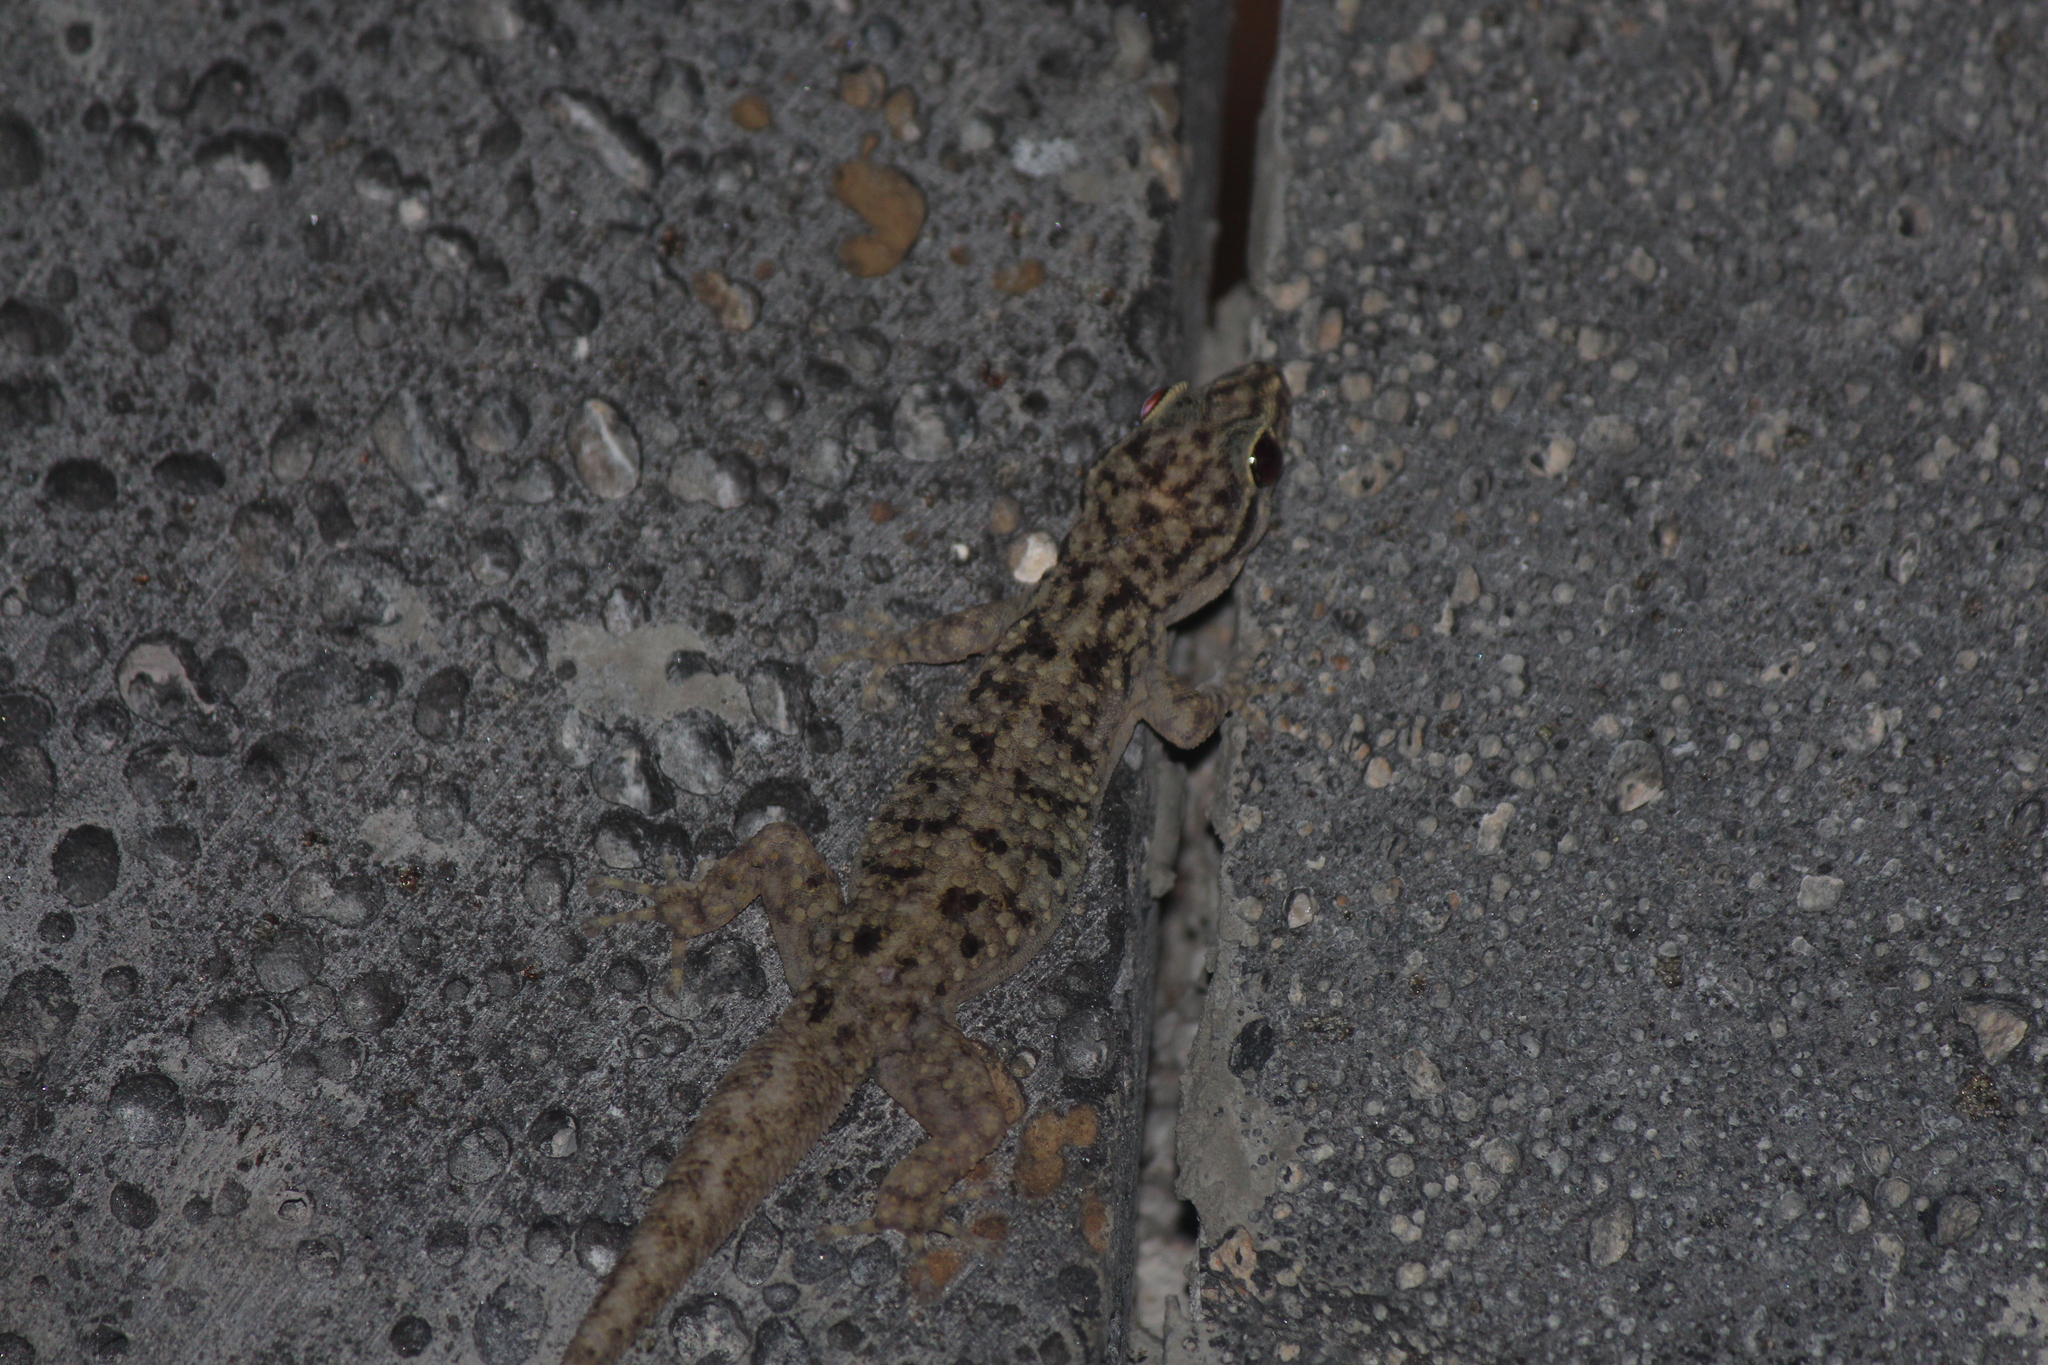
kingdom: Animalia
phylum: Chordata
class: Squamata
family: Phyllodactylidae
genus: Phyllodactylus
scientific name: Phyllodactylus darwini
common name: Darwin's leaf-toed gecko
